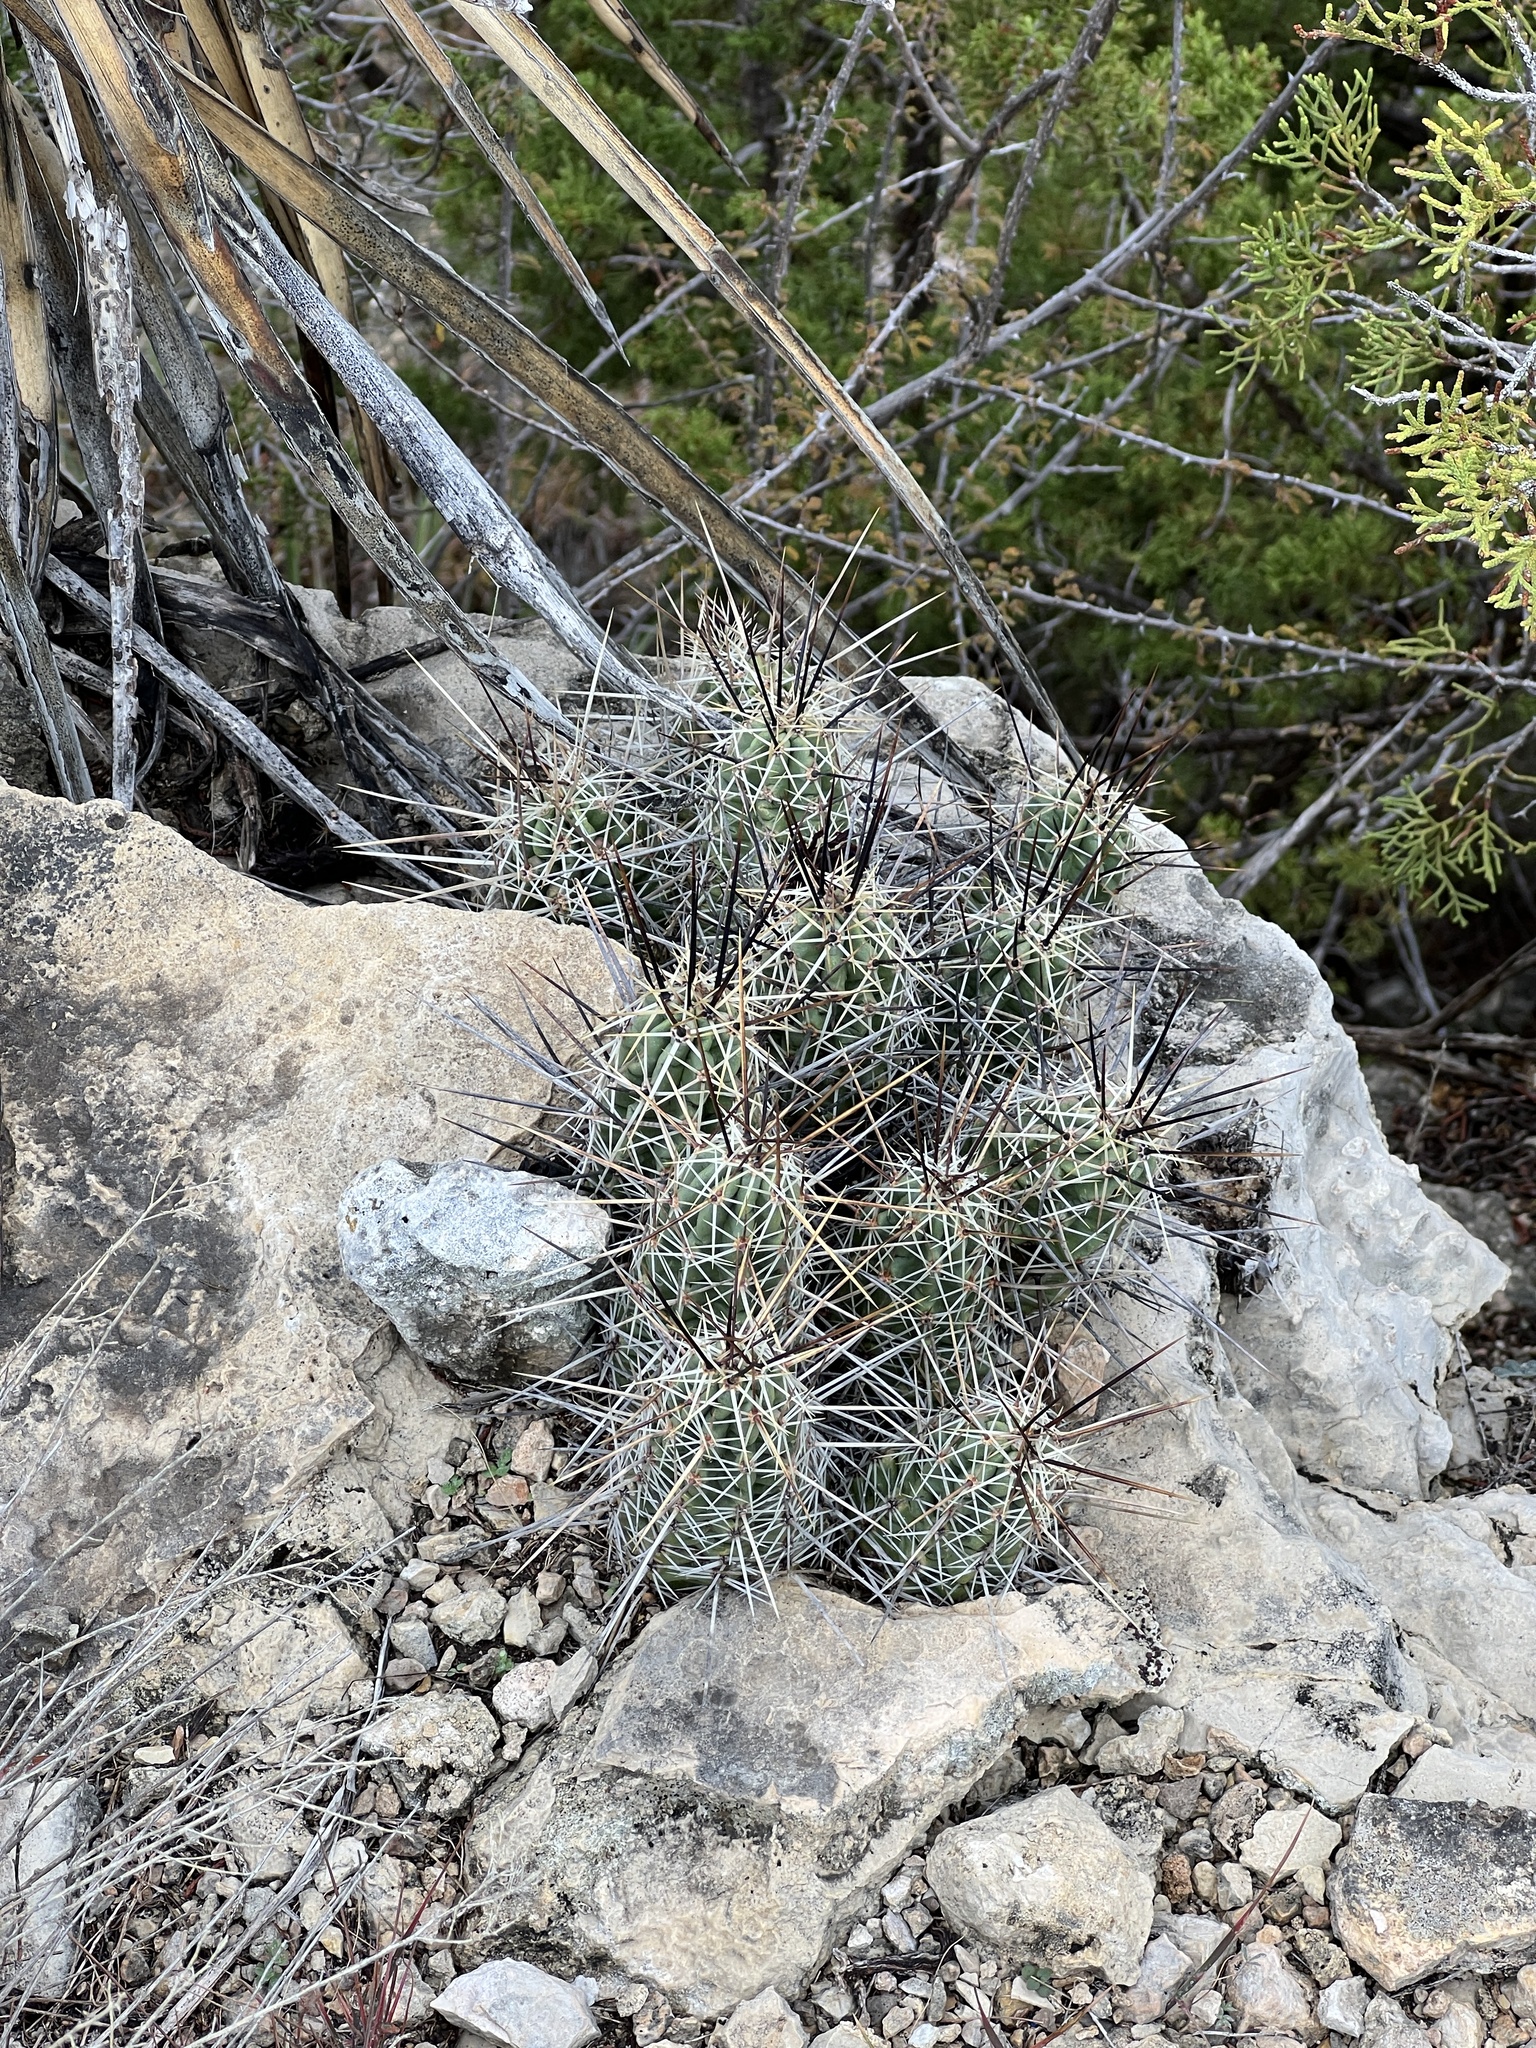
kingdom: Plantae
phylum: Tracheophyta
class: Magnoliopsida
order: Caryophyllales
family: Cactaceae
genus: Echinocereus
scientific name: Echinocereus enneacanthus
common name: Pitaya
